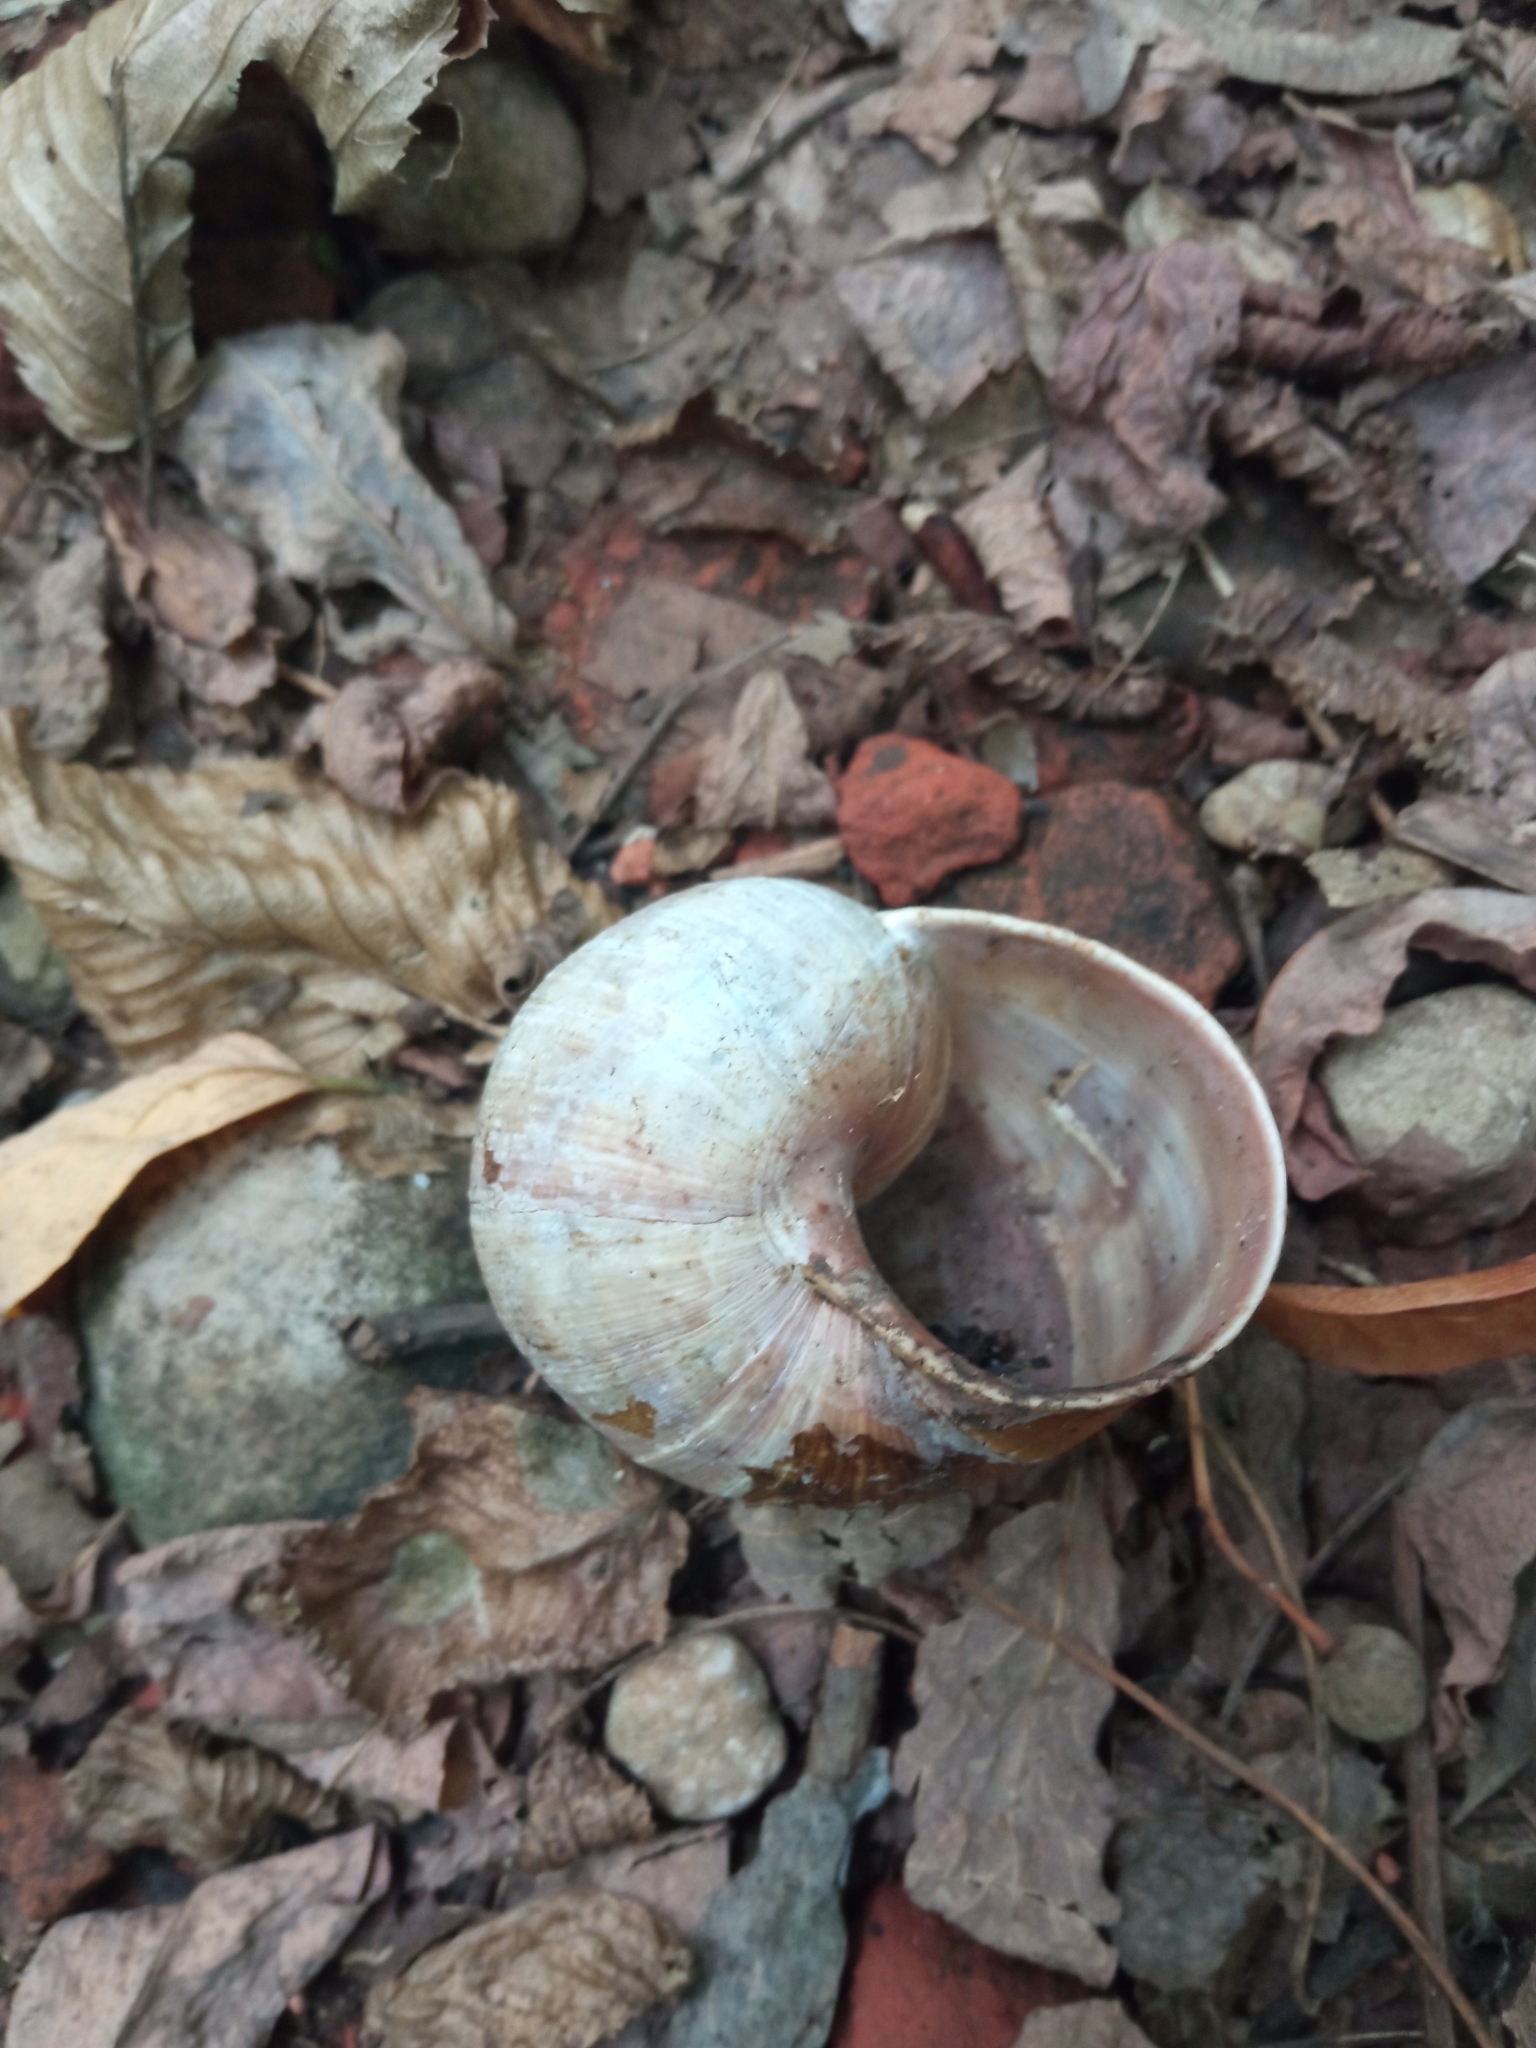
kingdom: Animalia
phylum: Mollusca
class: Gastropoda
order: Stylommatophora
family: Helicidae
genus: Helix
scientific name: Helix pomatia
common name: Roman snail
